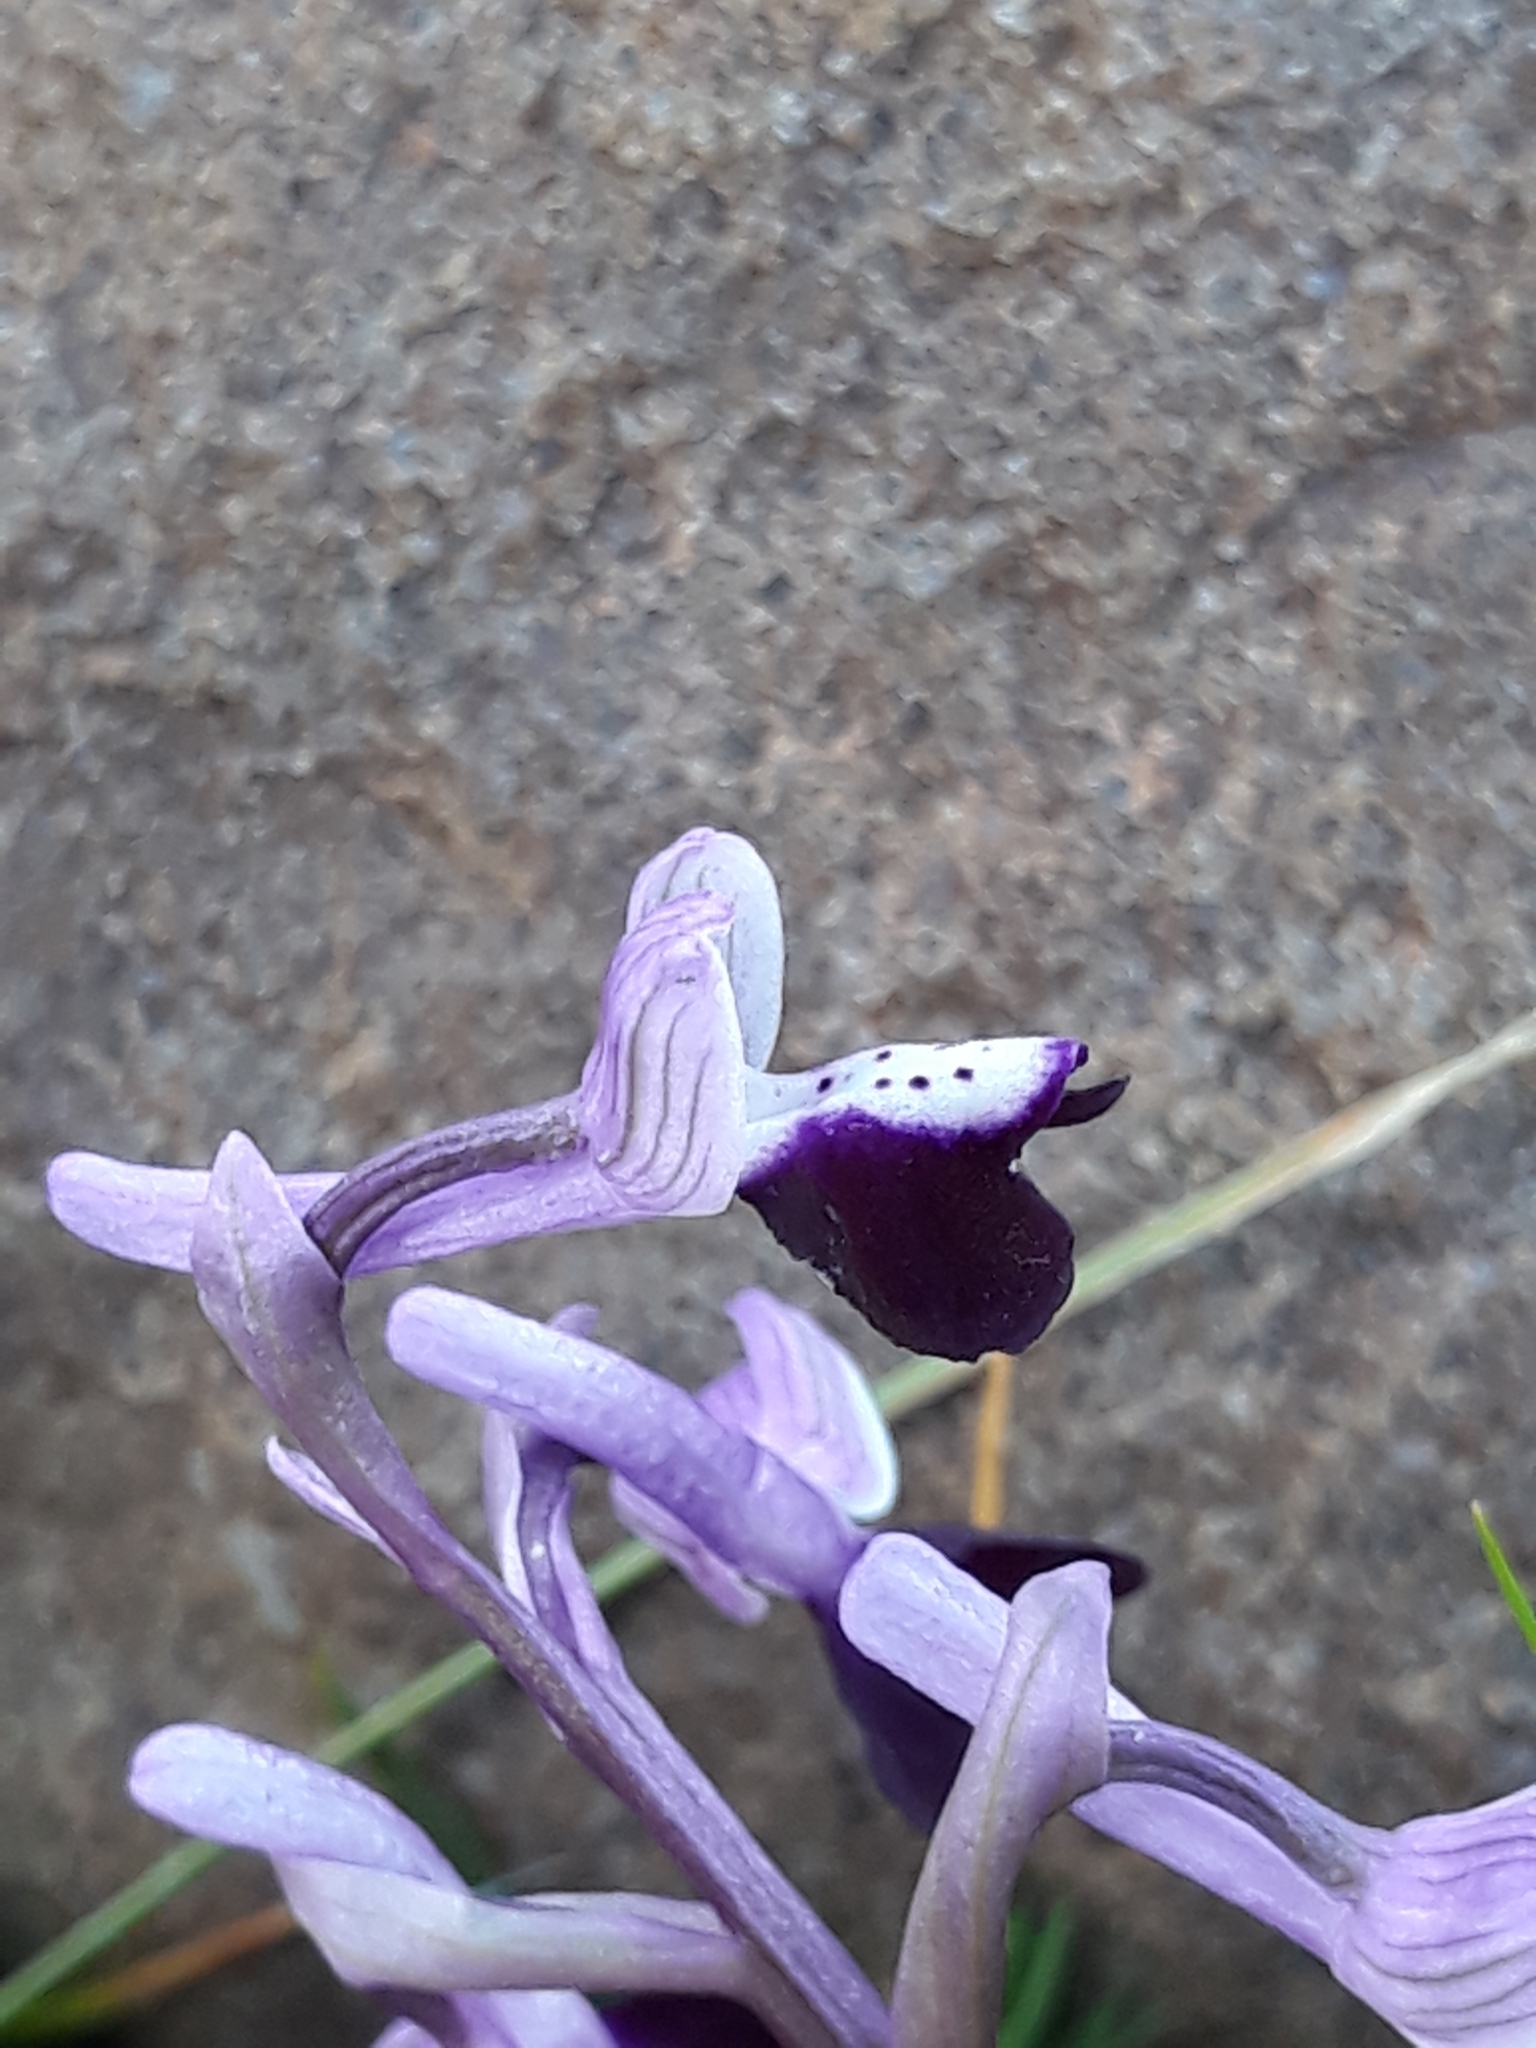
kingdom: Plantae
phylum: Tracheophyta
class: Liliopsida
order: Asparagales
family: Orchidaceae
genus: Anacamptis
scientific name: Anacamptis morio
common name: Green-winged orchid
